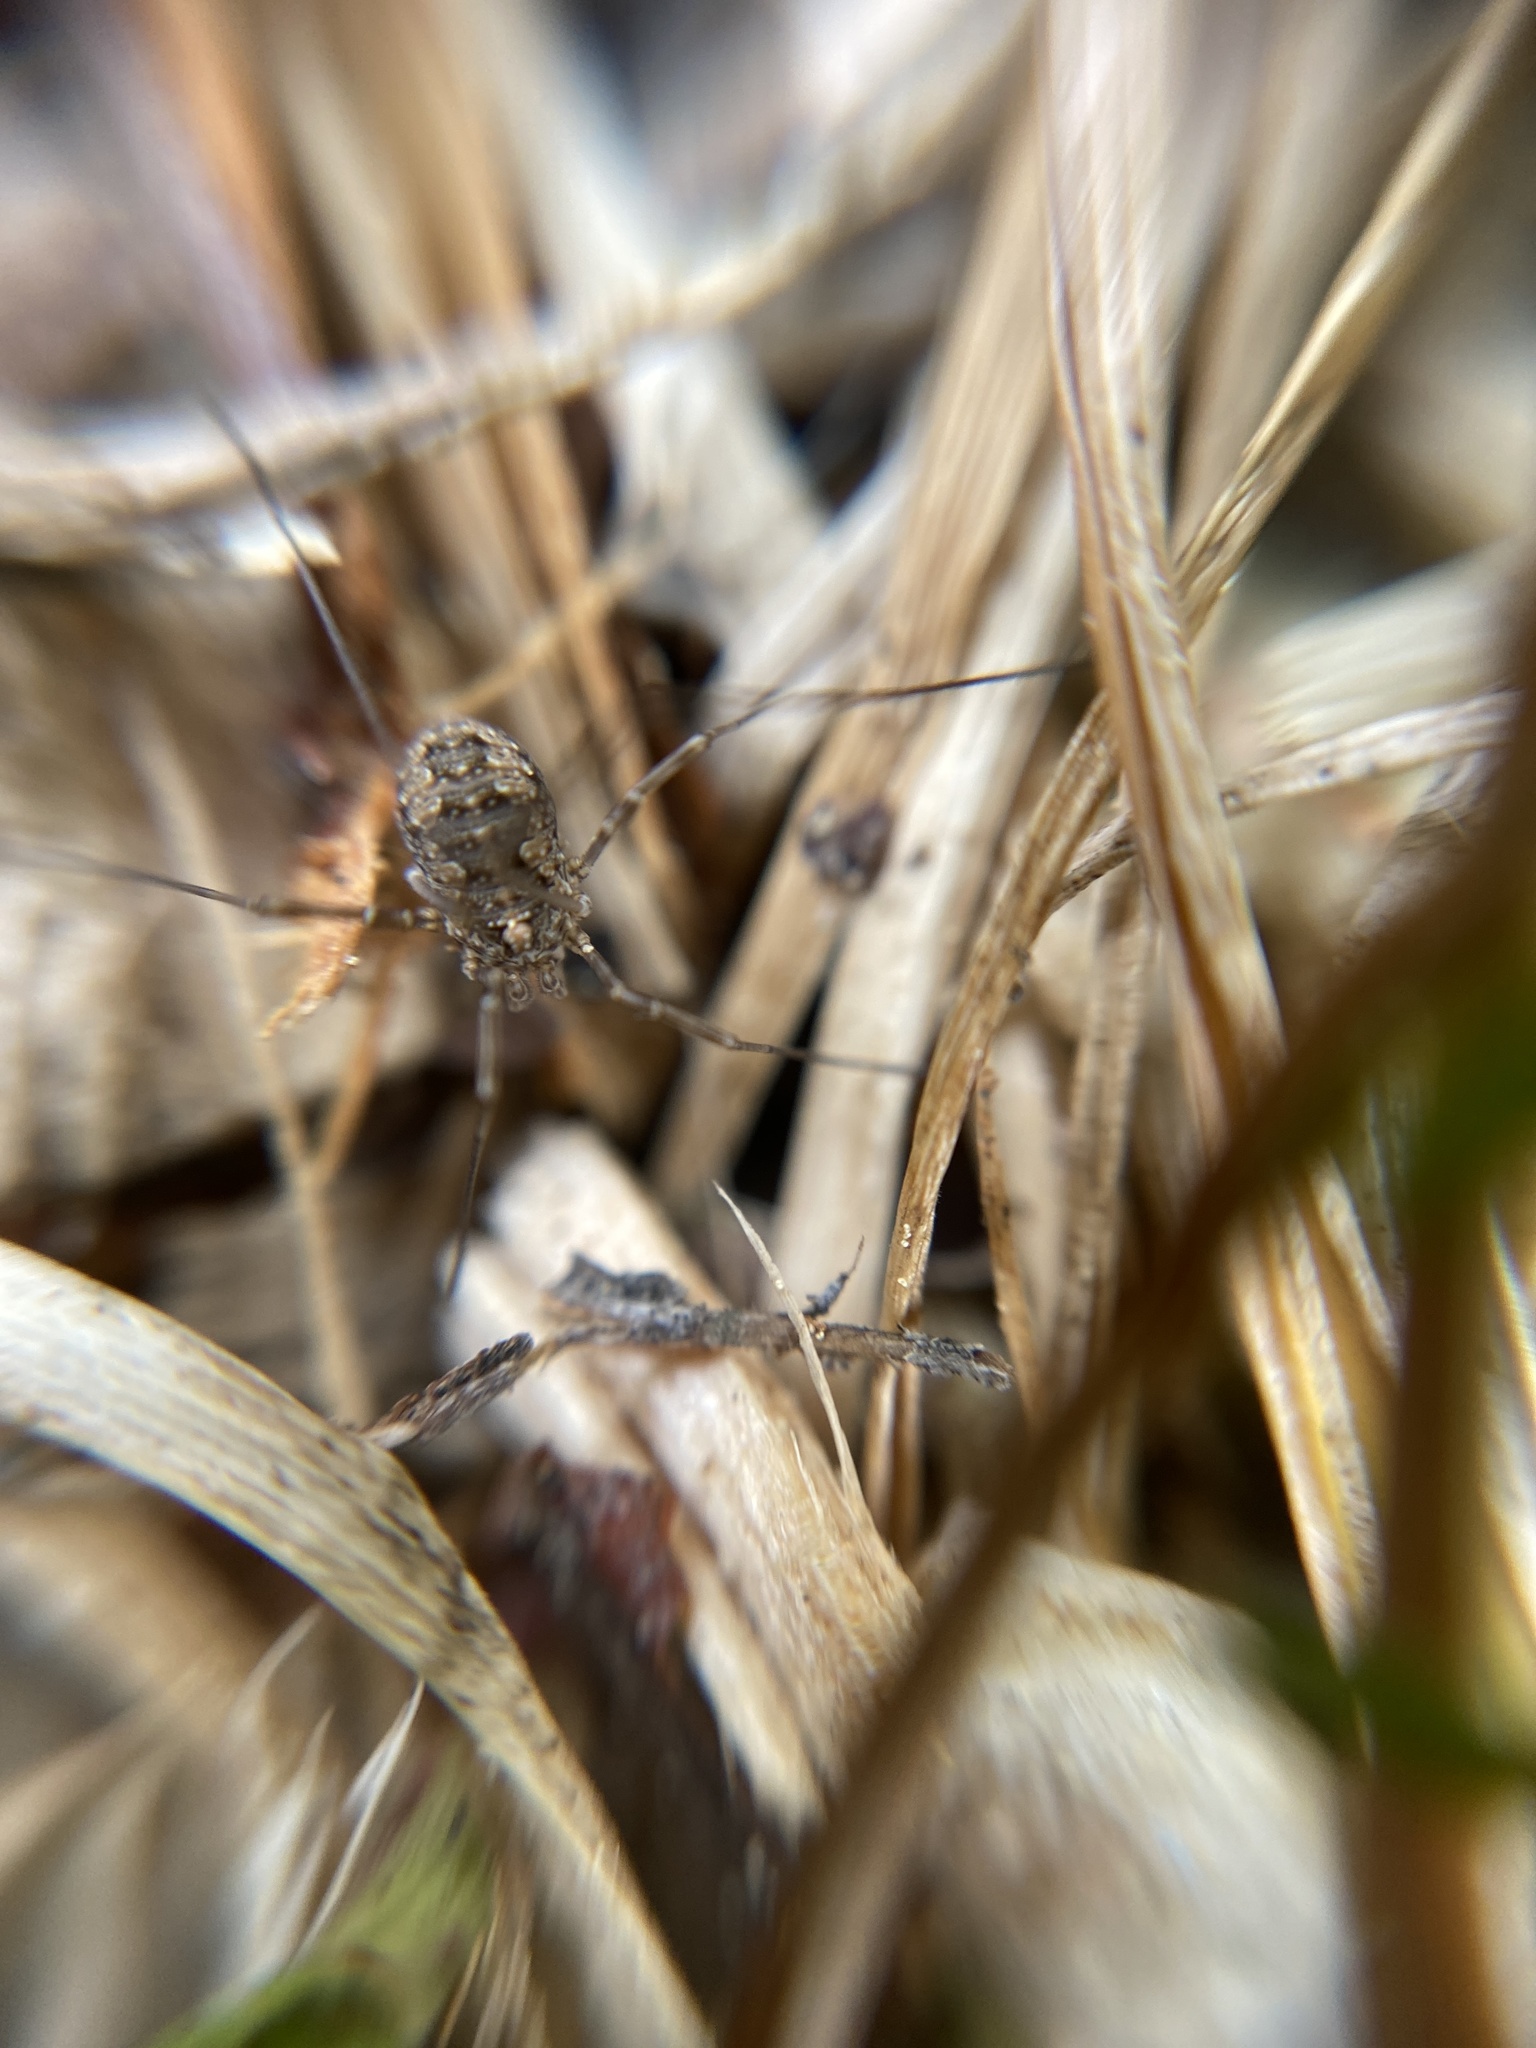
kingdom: Animalia
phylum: Arthropoda
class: Arachnida
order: Opiliones
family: Phalangiidae
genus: Phalangium
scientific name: Phalangium opilio
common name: Daddy longleg
